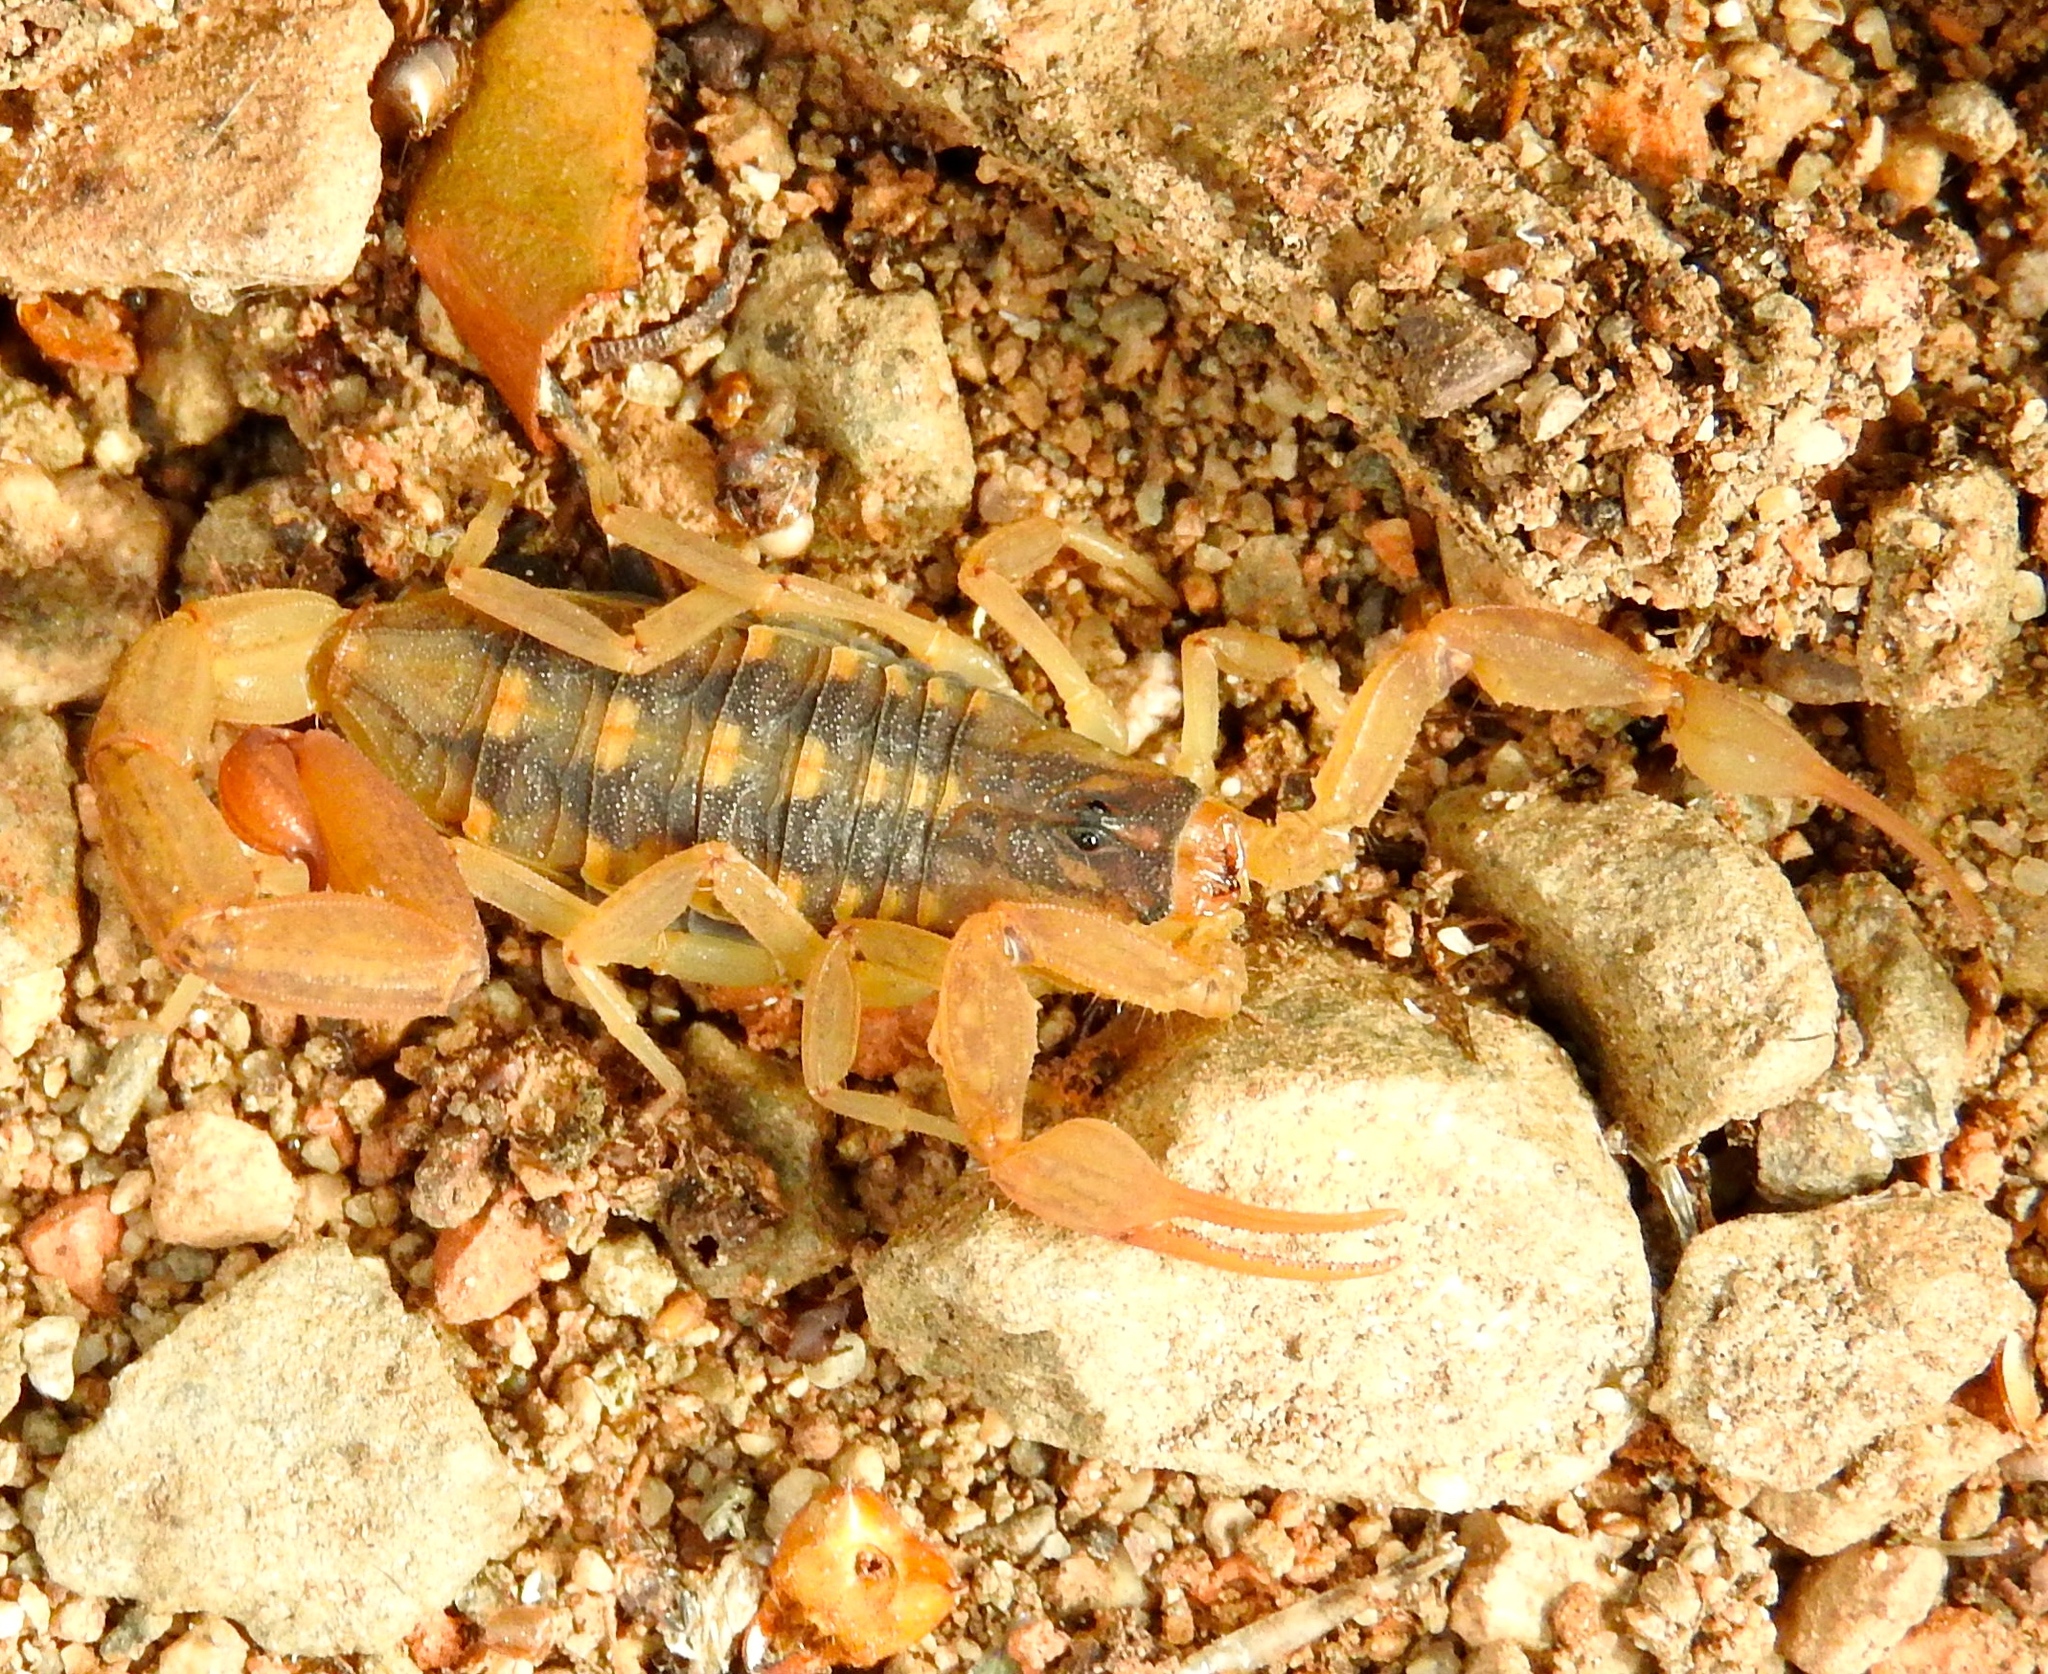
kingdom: Animalia
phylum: Arthropoda
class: Arachnida
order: Scorpiones
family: Buthidae
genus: Centruroides
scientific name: Centruroides baldazoi
